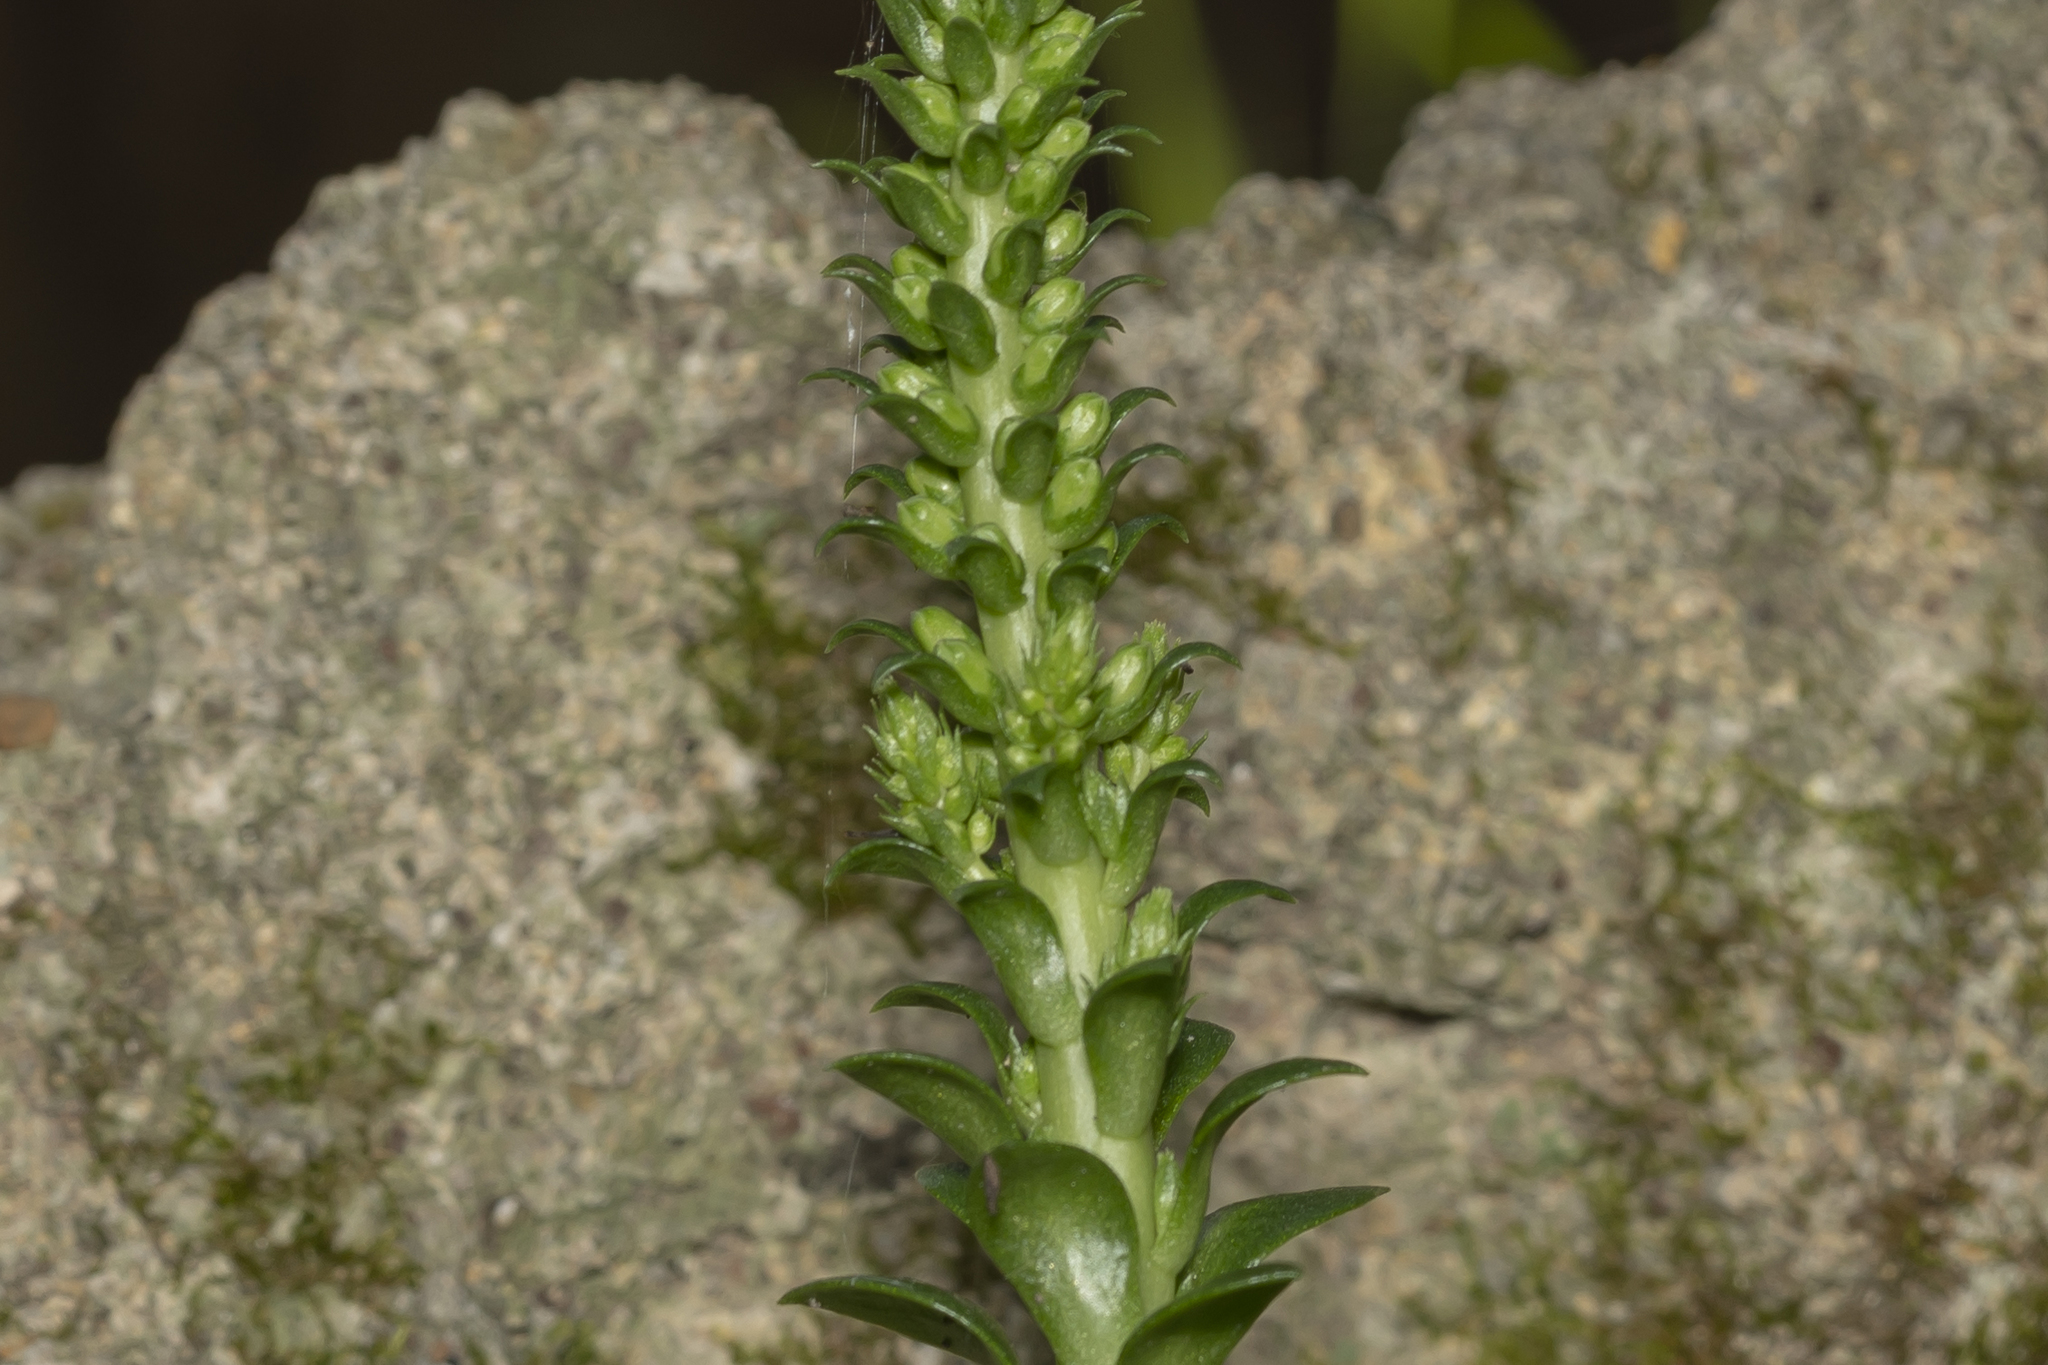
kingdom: Plantae
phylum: Tracheophyta
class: Magnoliopsida
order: Saxifragales
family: Crassulaceae
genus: Umbilicus
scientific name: Umbilicus horizontalis
